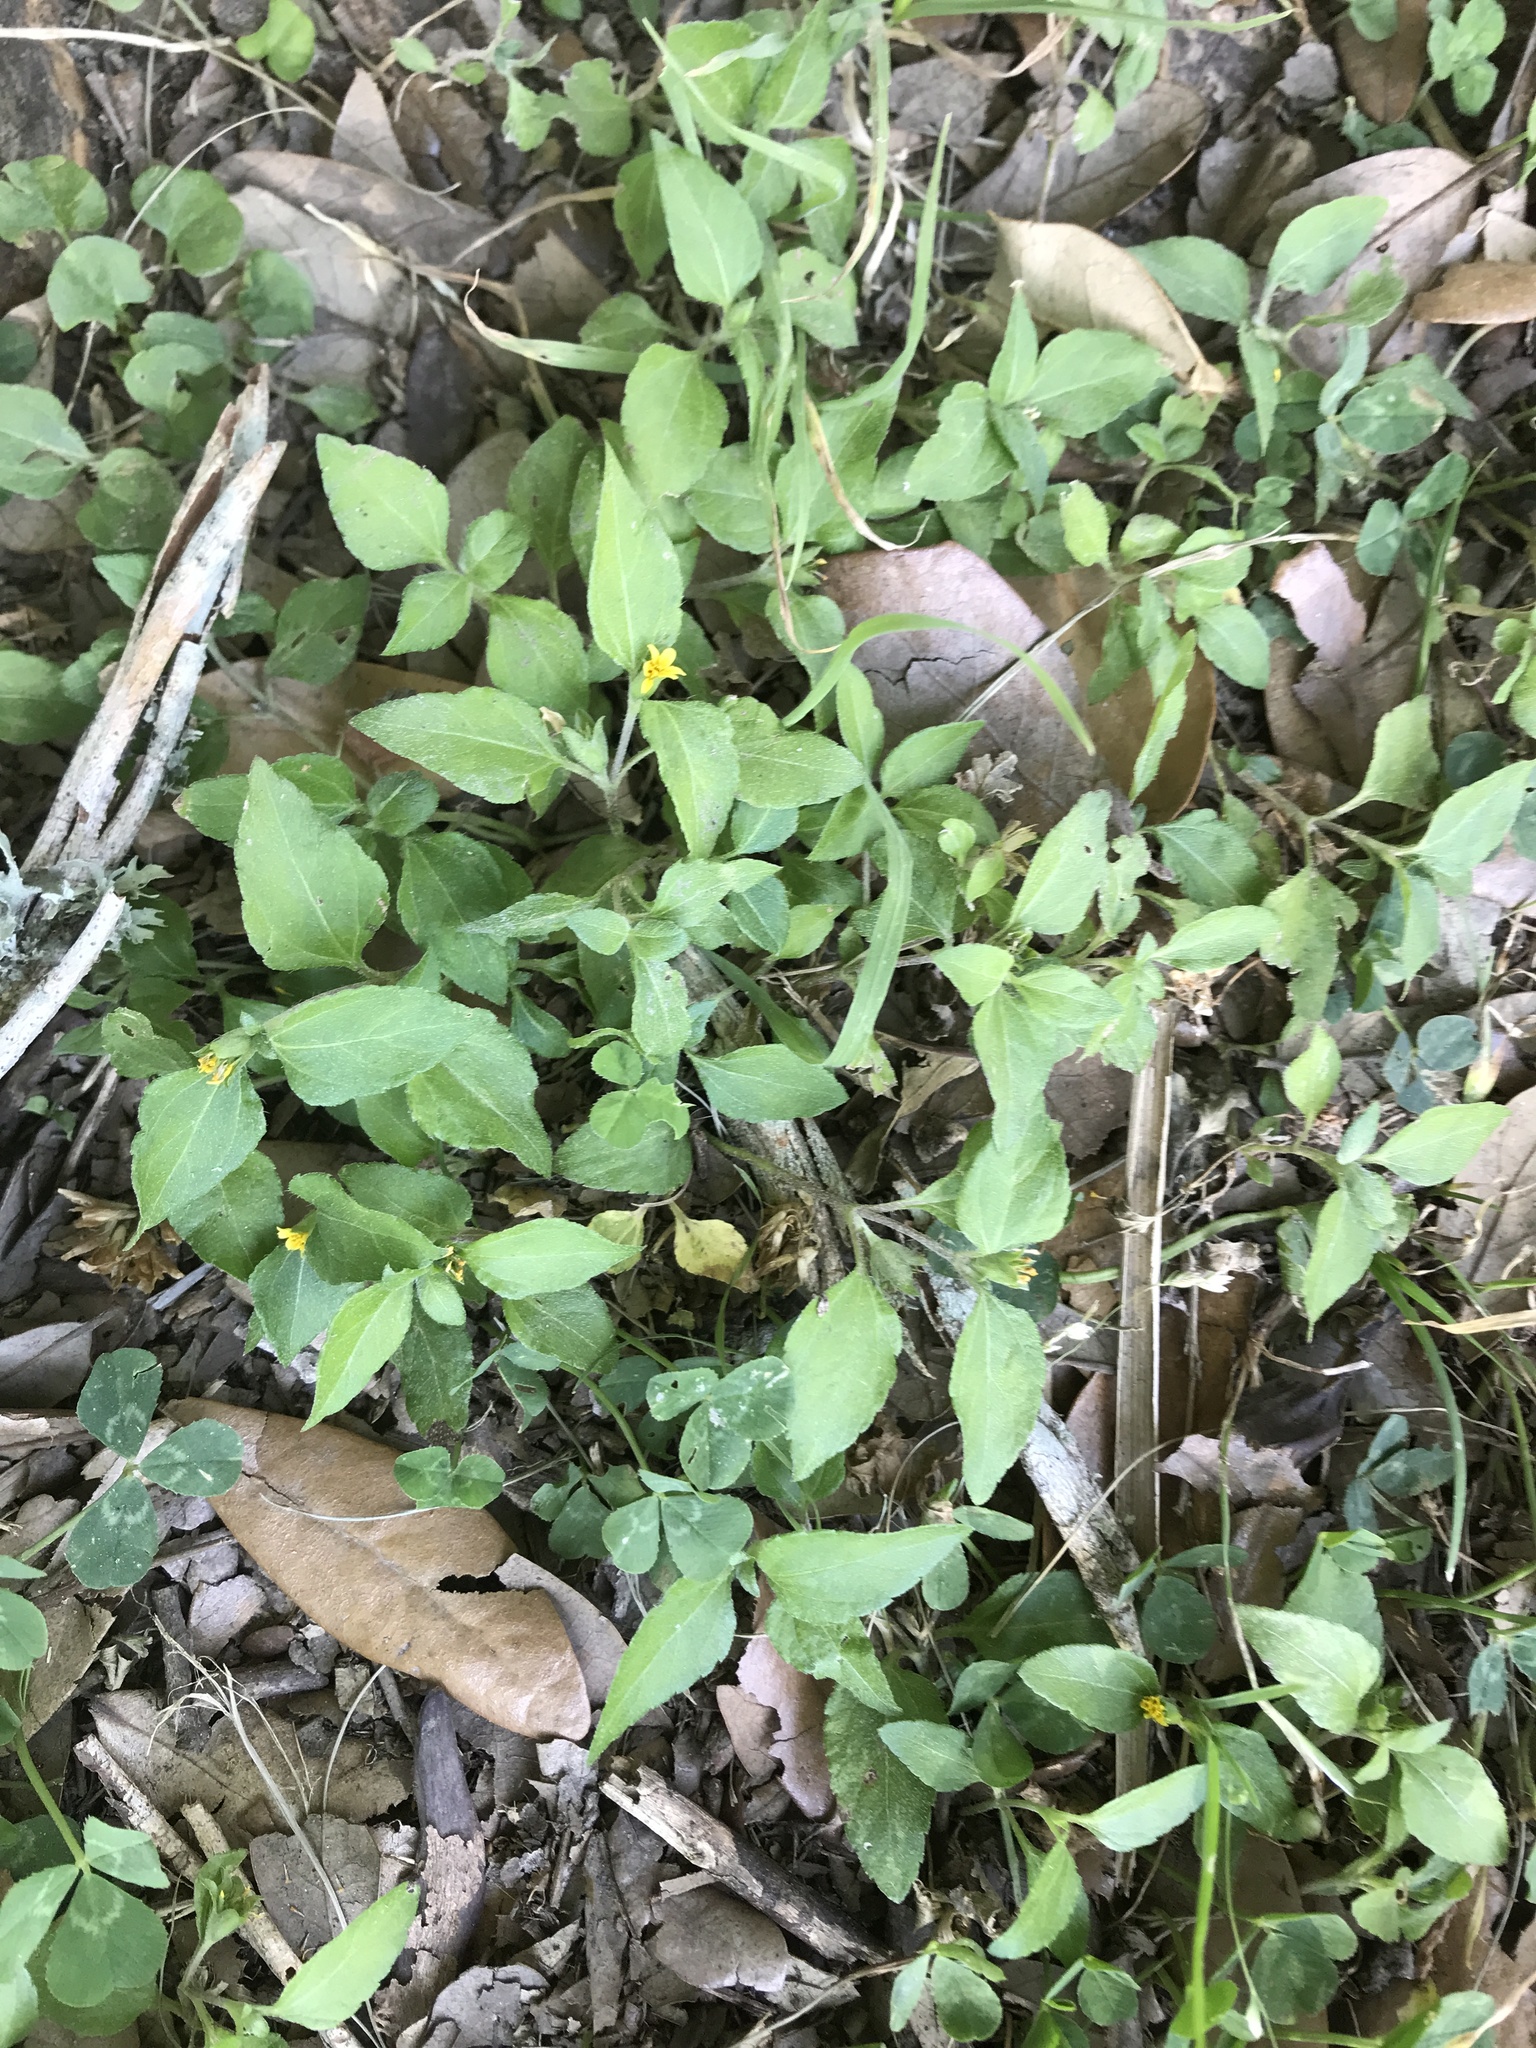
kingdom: Plantae
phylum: Tracheophyta
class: Magnoliopsida
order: Asterales
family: Asteraceae
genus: Calyptocarpus
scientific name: Calyptocarpus vialis
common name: Straggler daisy
